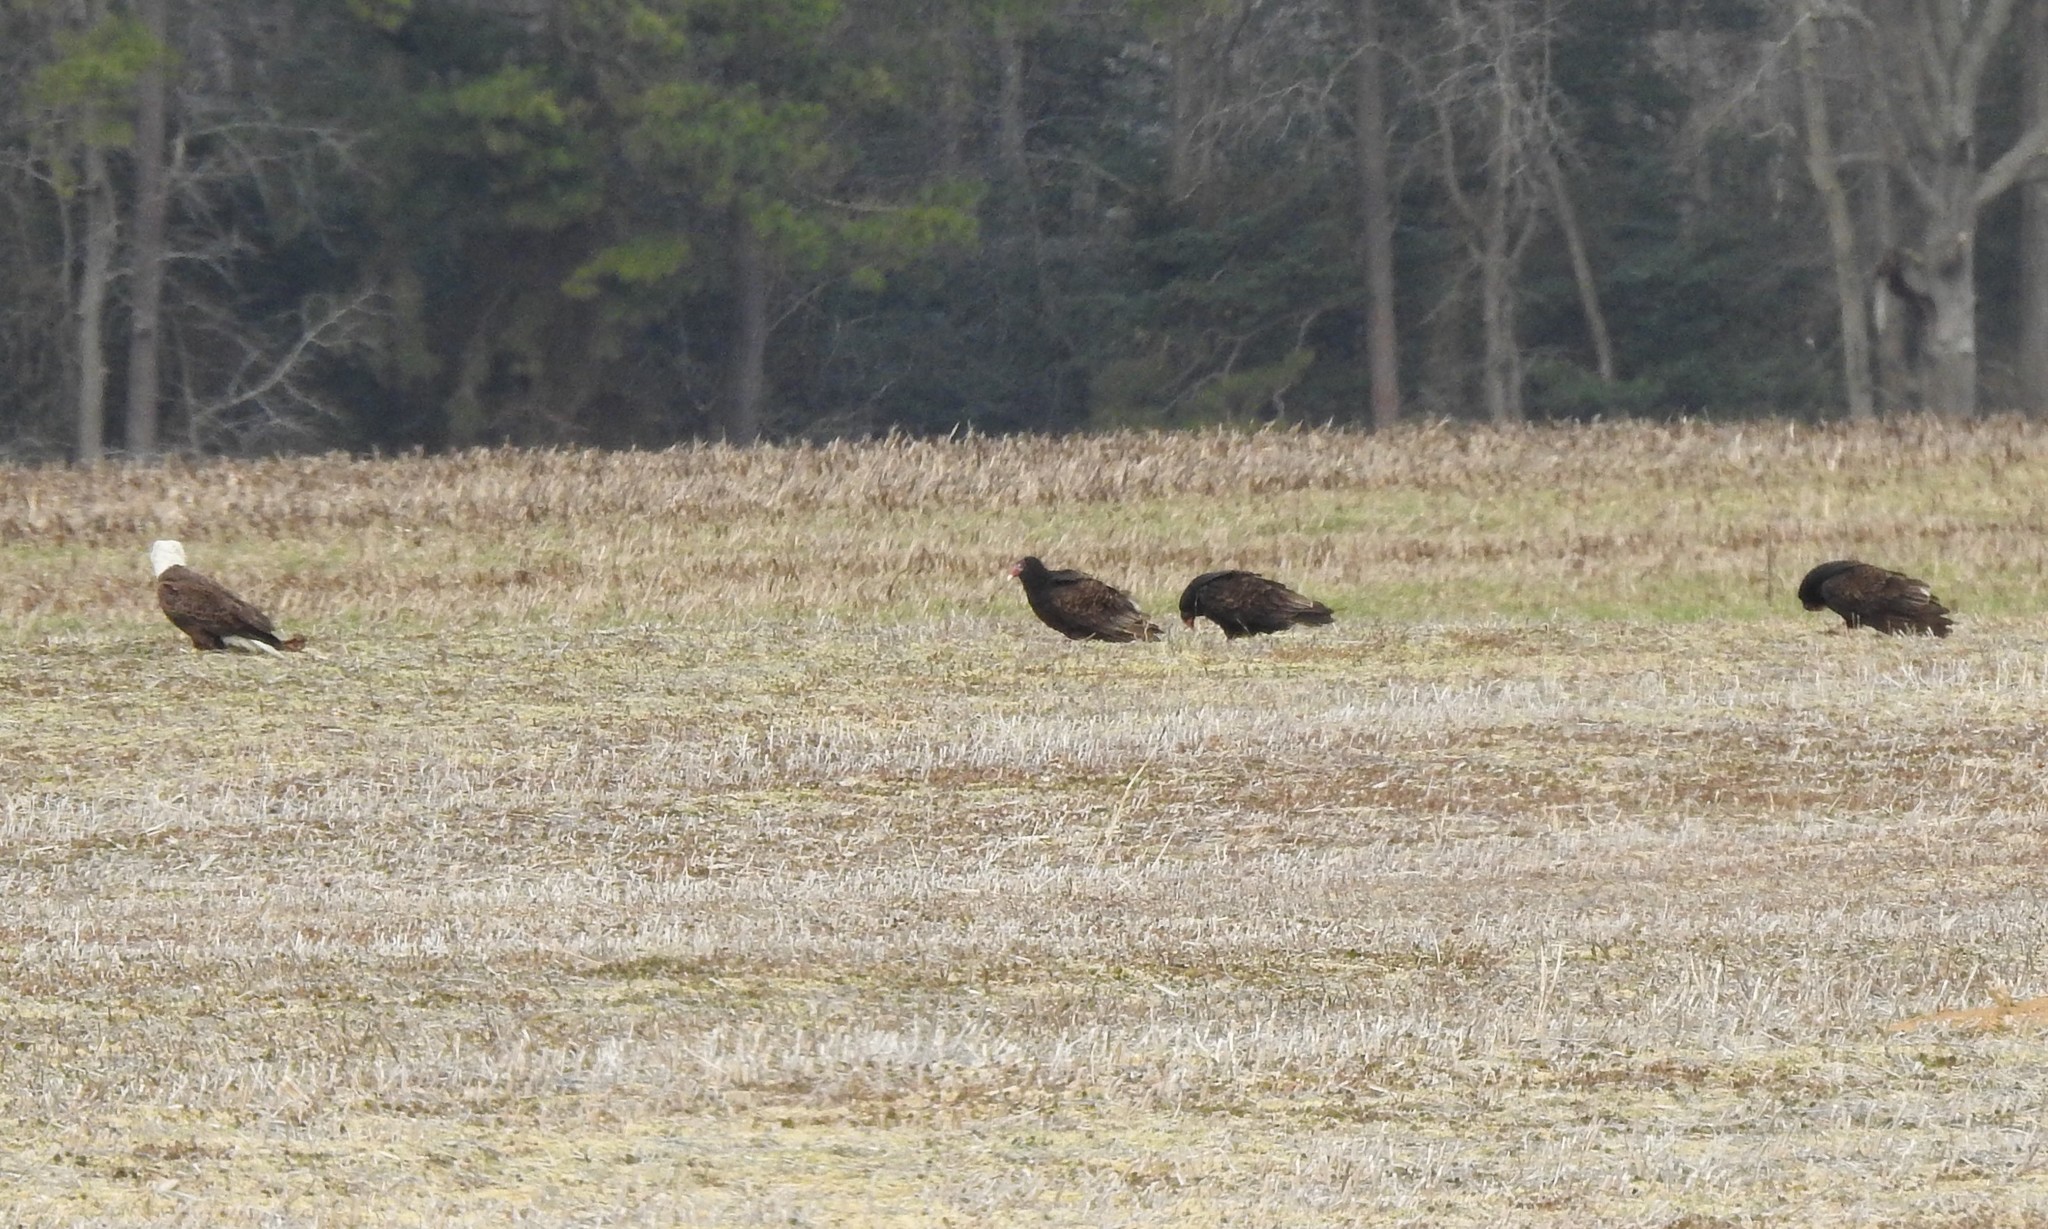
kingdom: Animalia
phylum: Chordata
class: Aves
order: Accipitriformes
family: Cathartidae
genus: Cathartes
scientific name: Cathartes aura
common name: Turkey vulture
